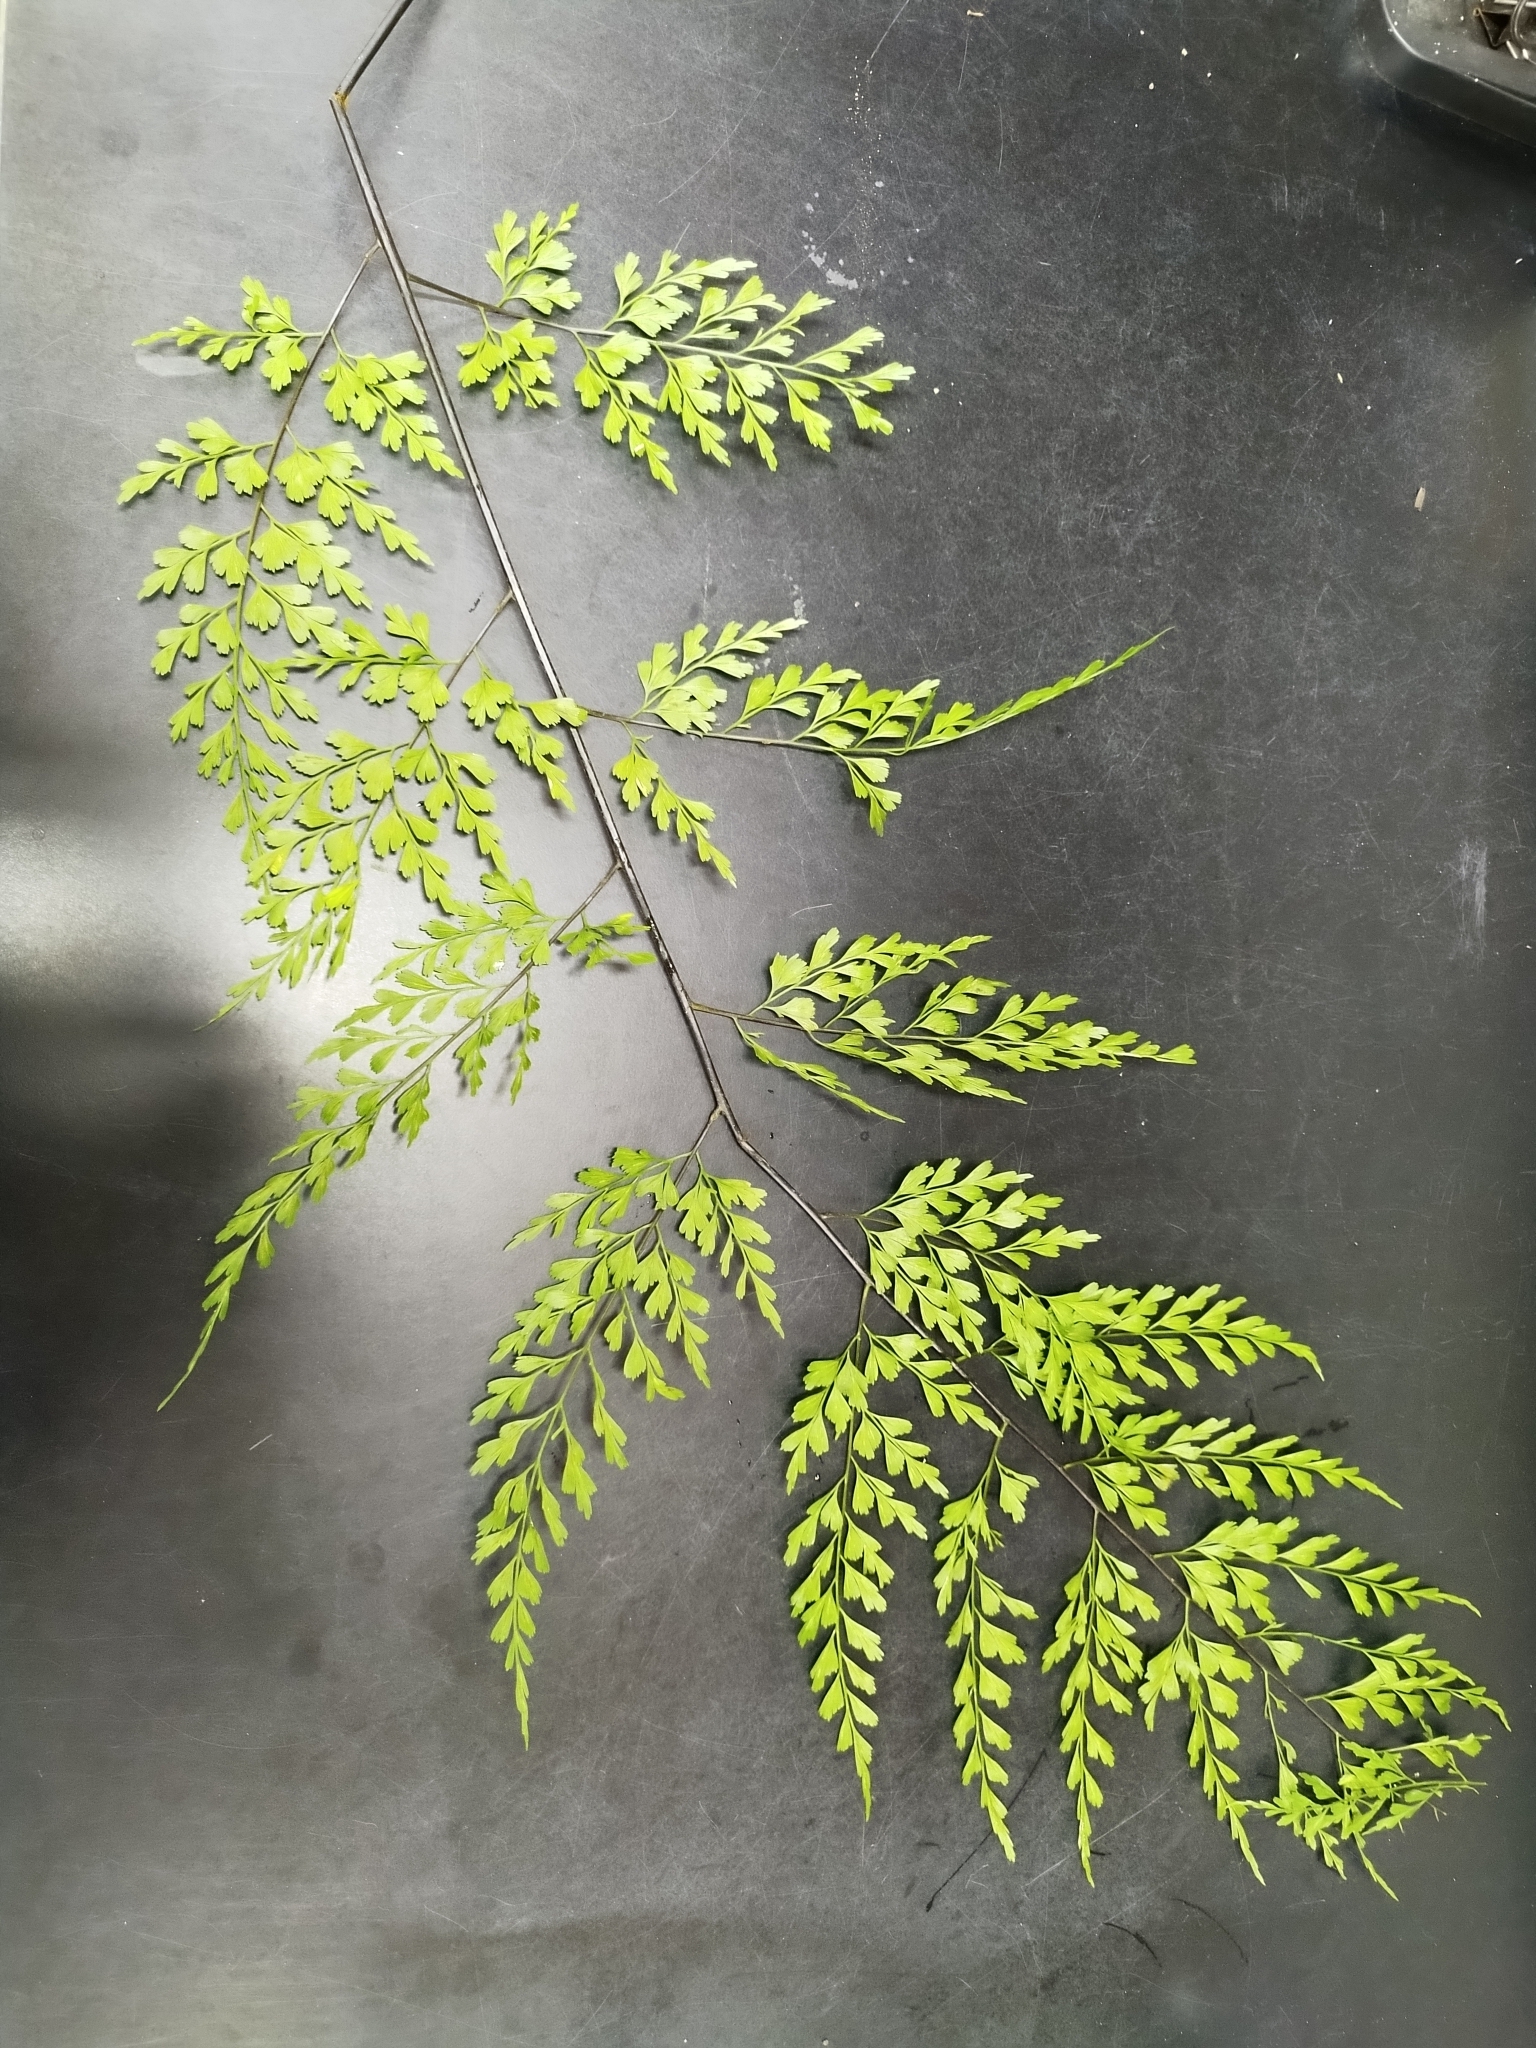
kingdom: Plantae
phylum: Tracheophyta
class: Polypodiopsida
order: Polypodiales
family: Aspleniaceae
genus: Asplenium
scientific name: Asplenium pseudolaserpitiifolium
